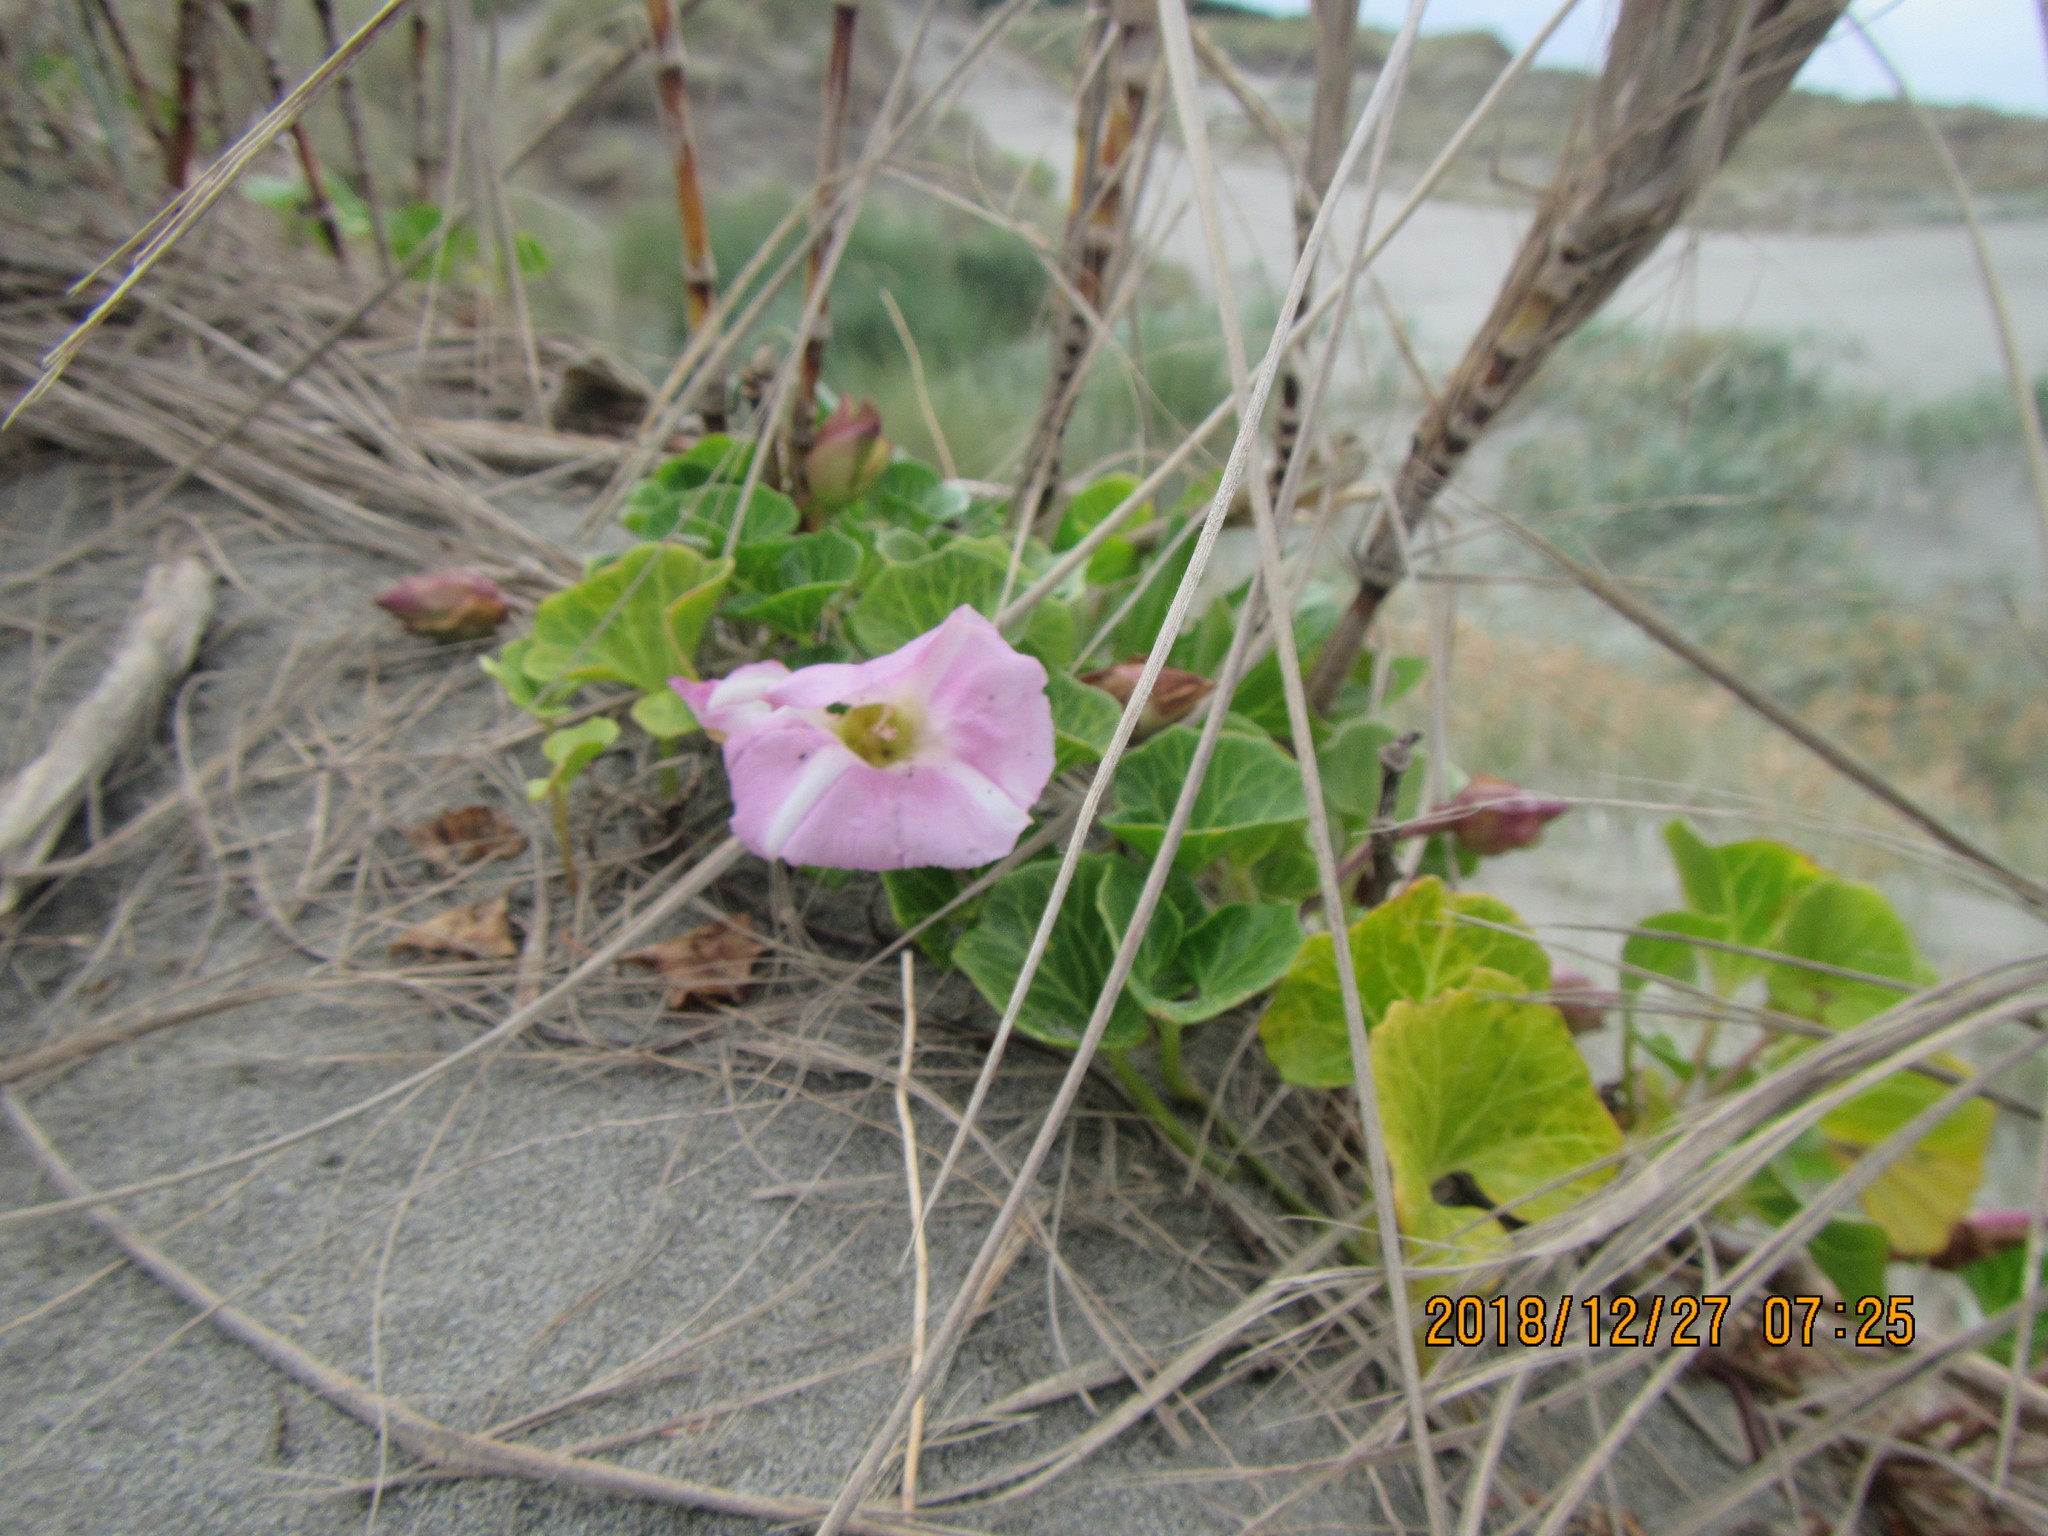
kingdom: Plantae
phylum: Tracheophyta
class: Magnoliopsida
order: Solanales
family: Convolvulaceae
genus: Calystegia
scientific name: Calystegia soldanella
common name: Sea bindweed
